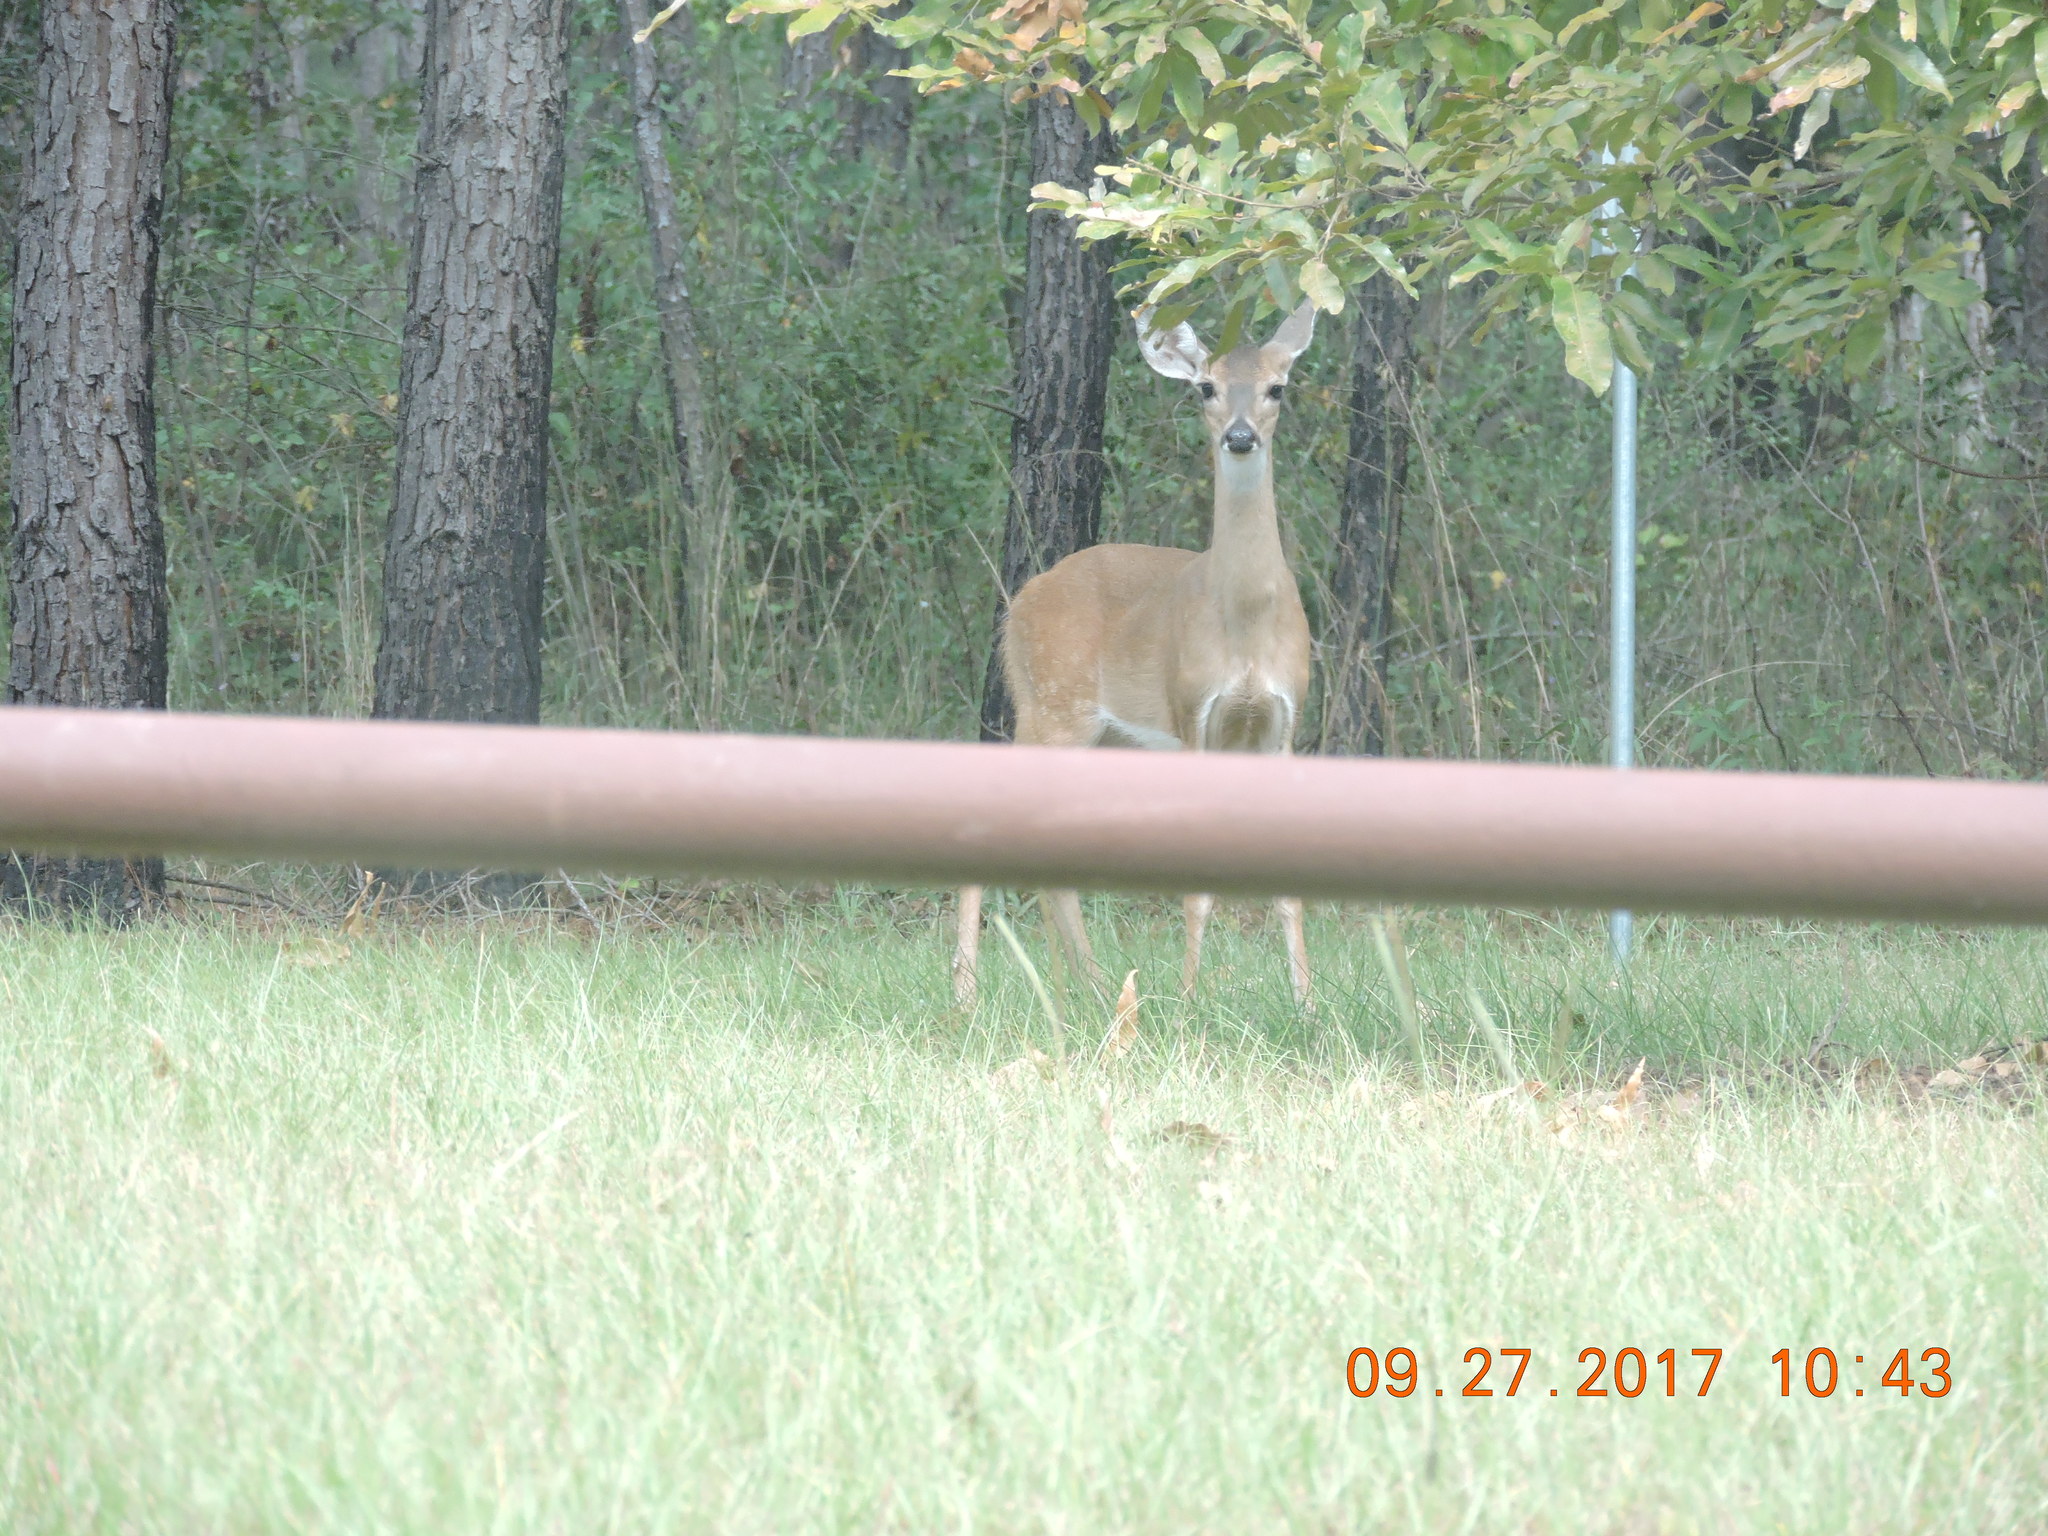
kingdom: Animalia
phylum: Chordata
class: Mammalia
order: Artiodactyla
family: Cervidae
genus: Odocoileus
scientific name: Odocoileus virginianus
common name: White-tailed deer
